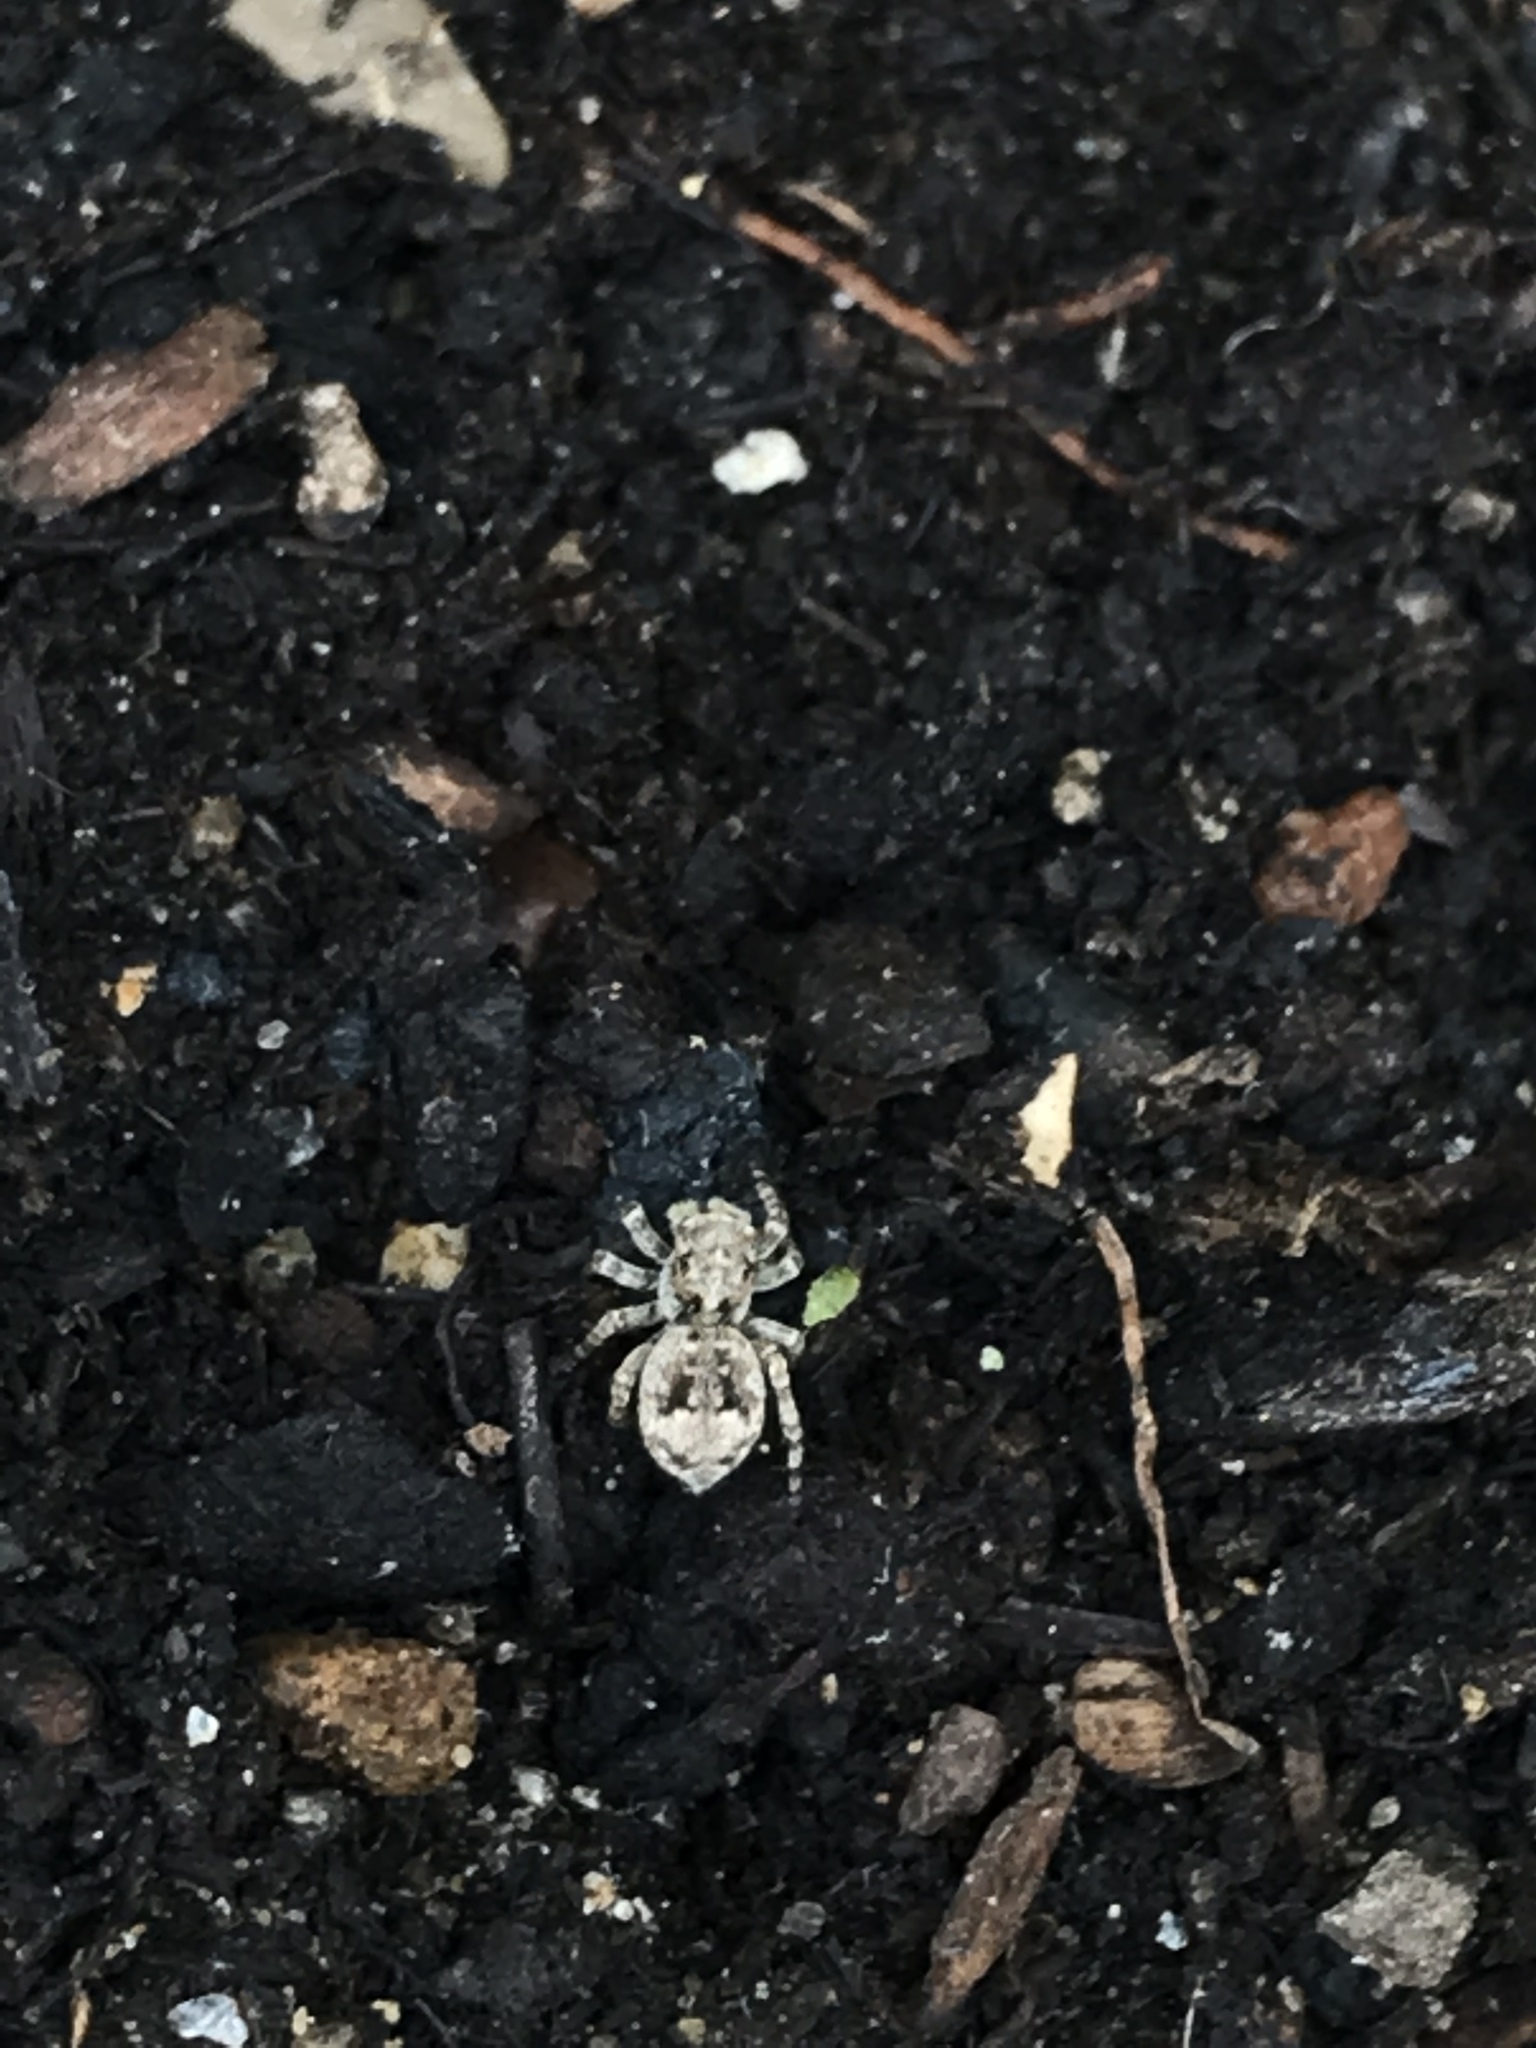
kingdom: Animalia
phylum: Arthropoda
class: Arachnida
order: Araneae
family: Salticidae
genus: Attulus
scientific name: Attulus fasciger
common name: Asiatic wall jumping spider
